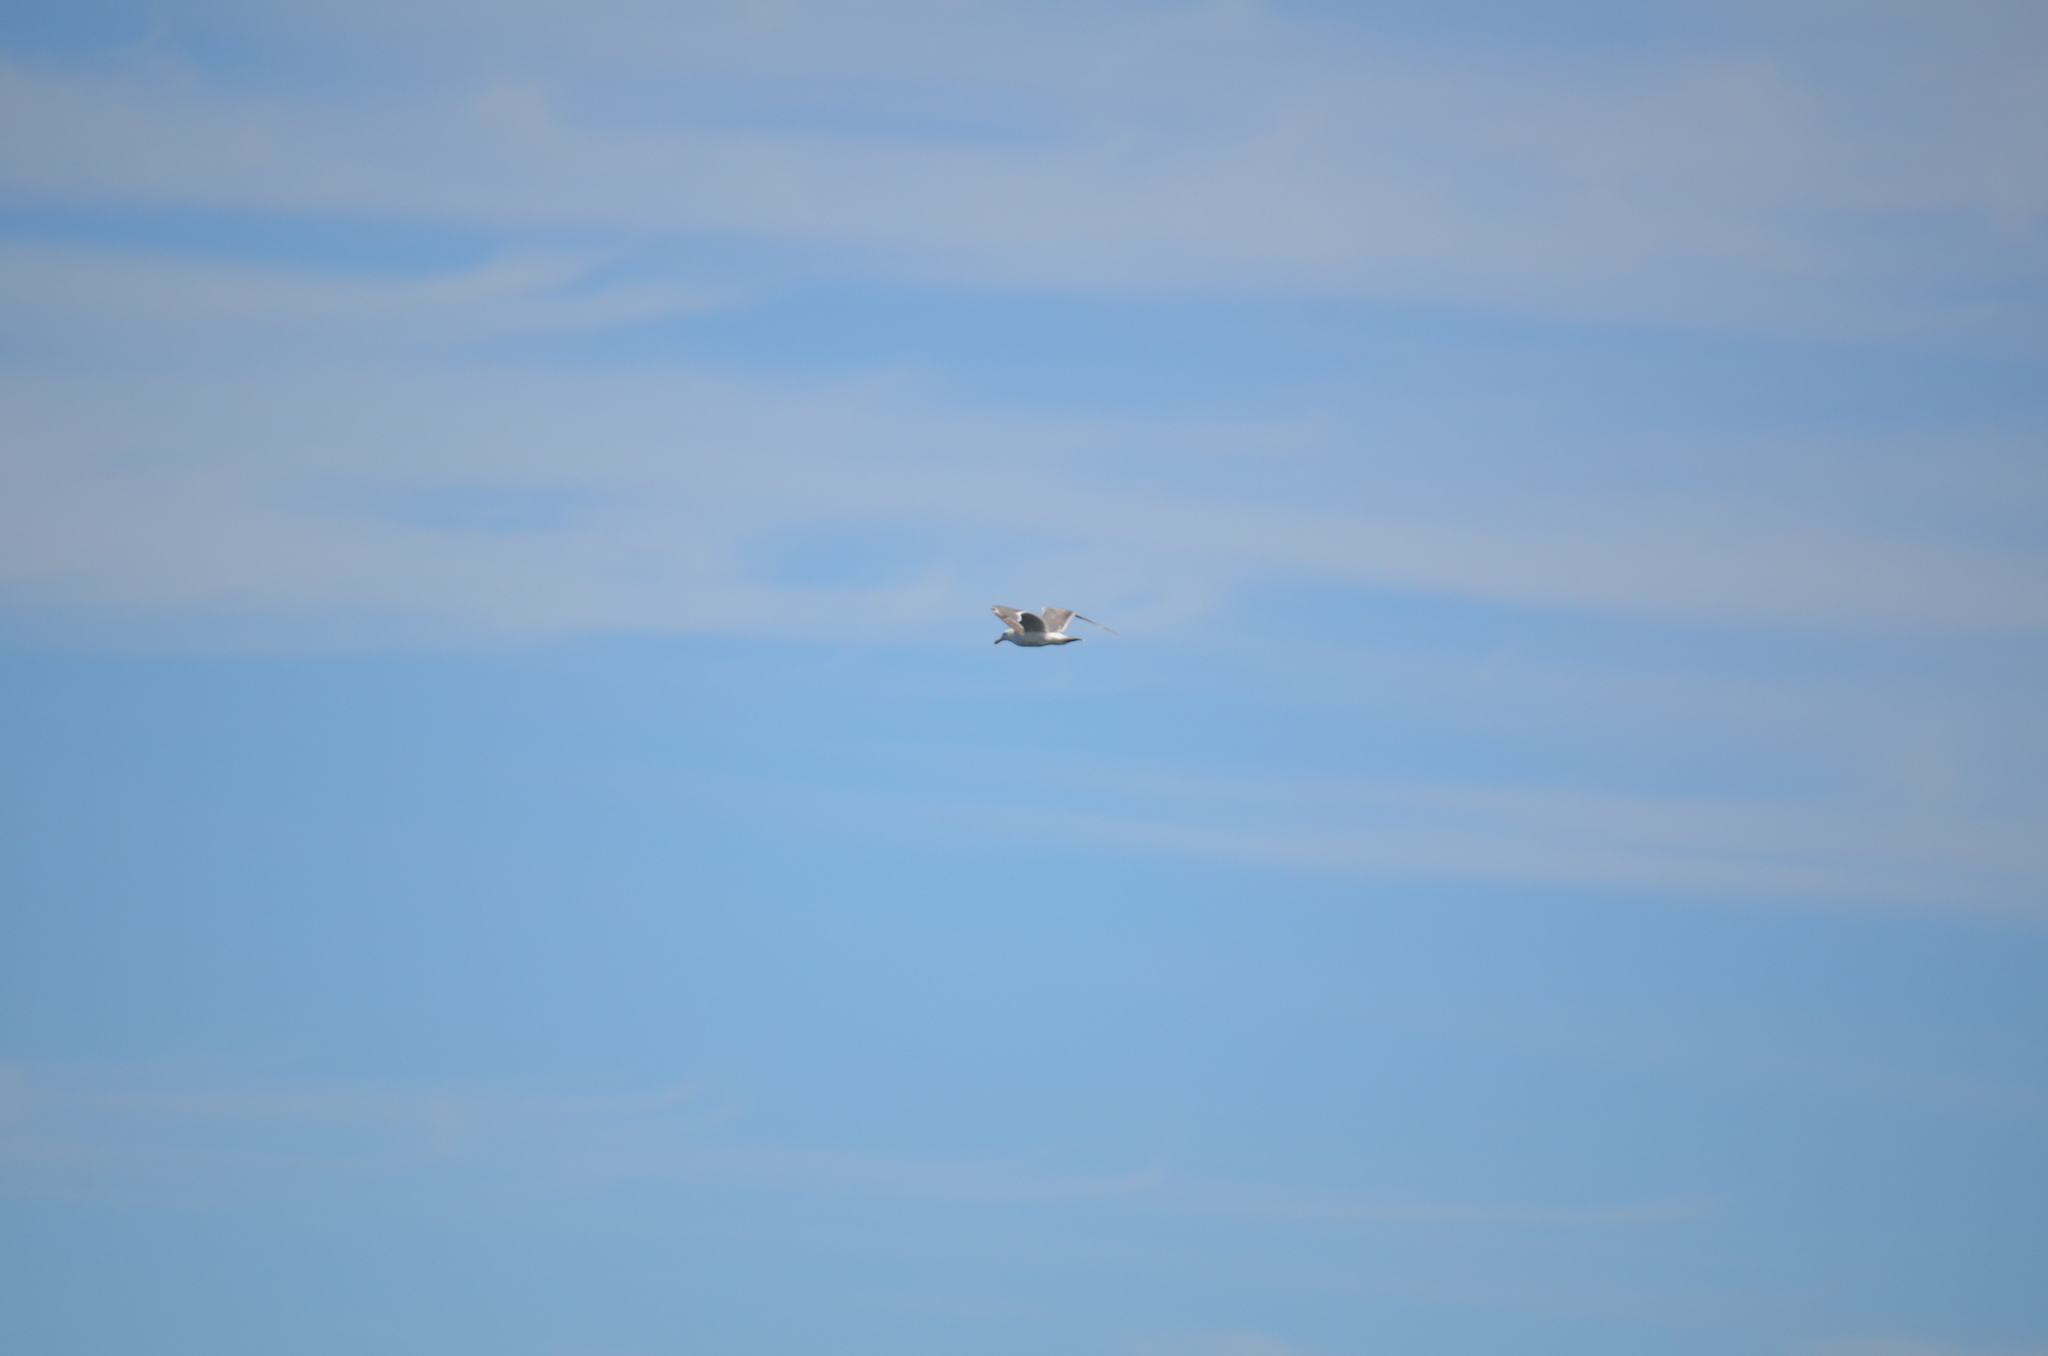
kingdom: Animalia
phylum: Chordata
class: Aves
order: Charadriiformes
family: Laridae
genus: Larus
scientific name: Larus glaucescens
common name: Glaucous-winged gull
